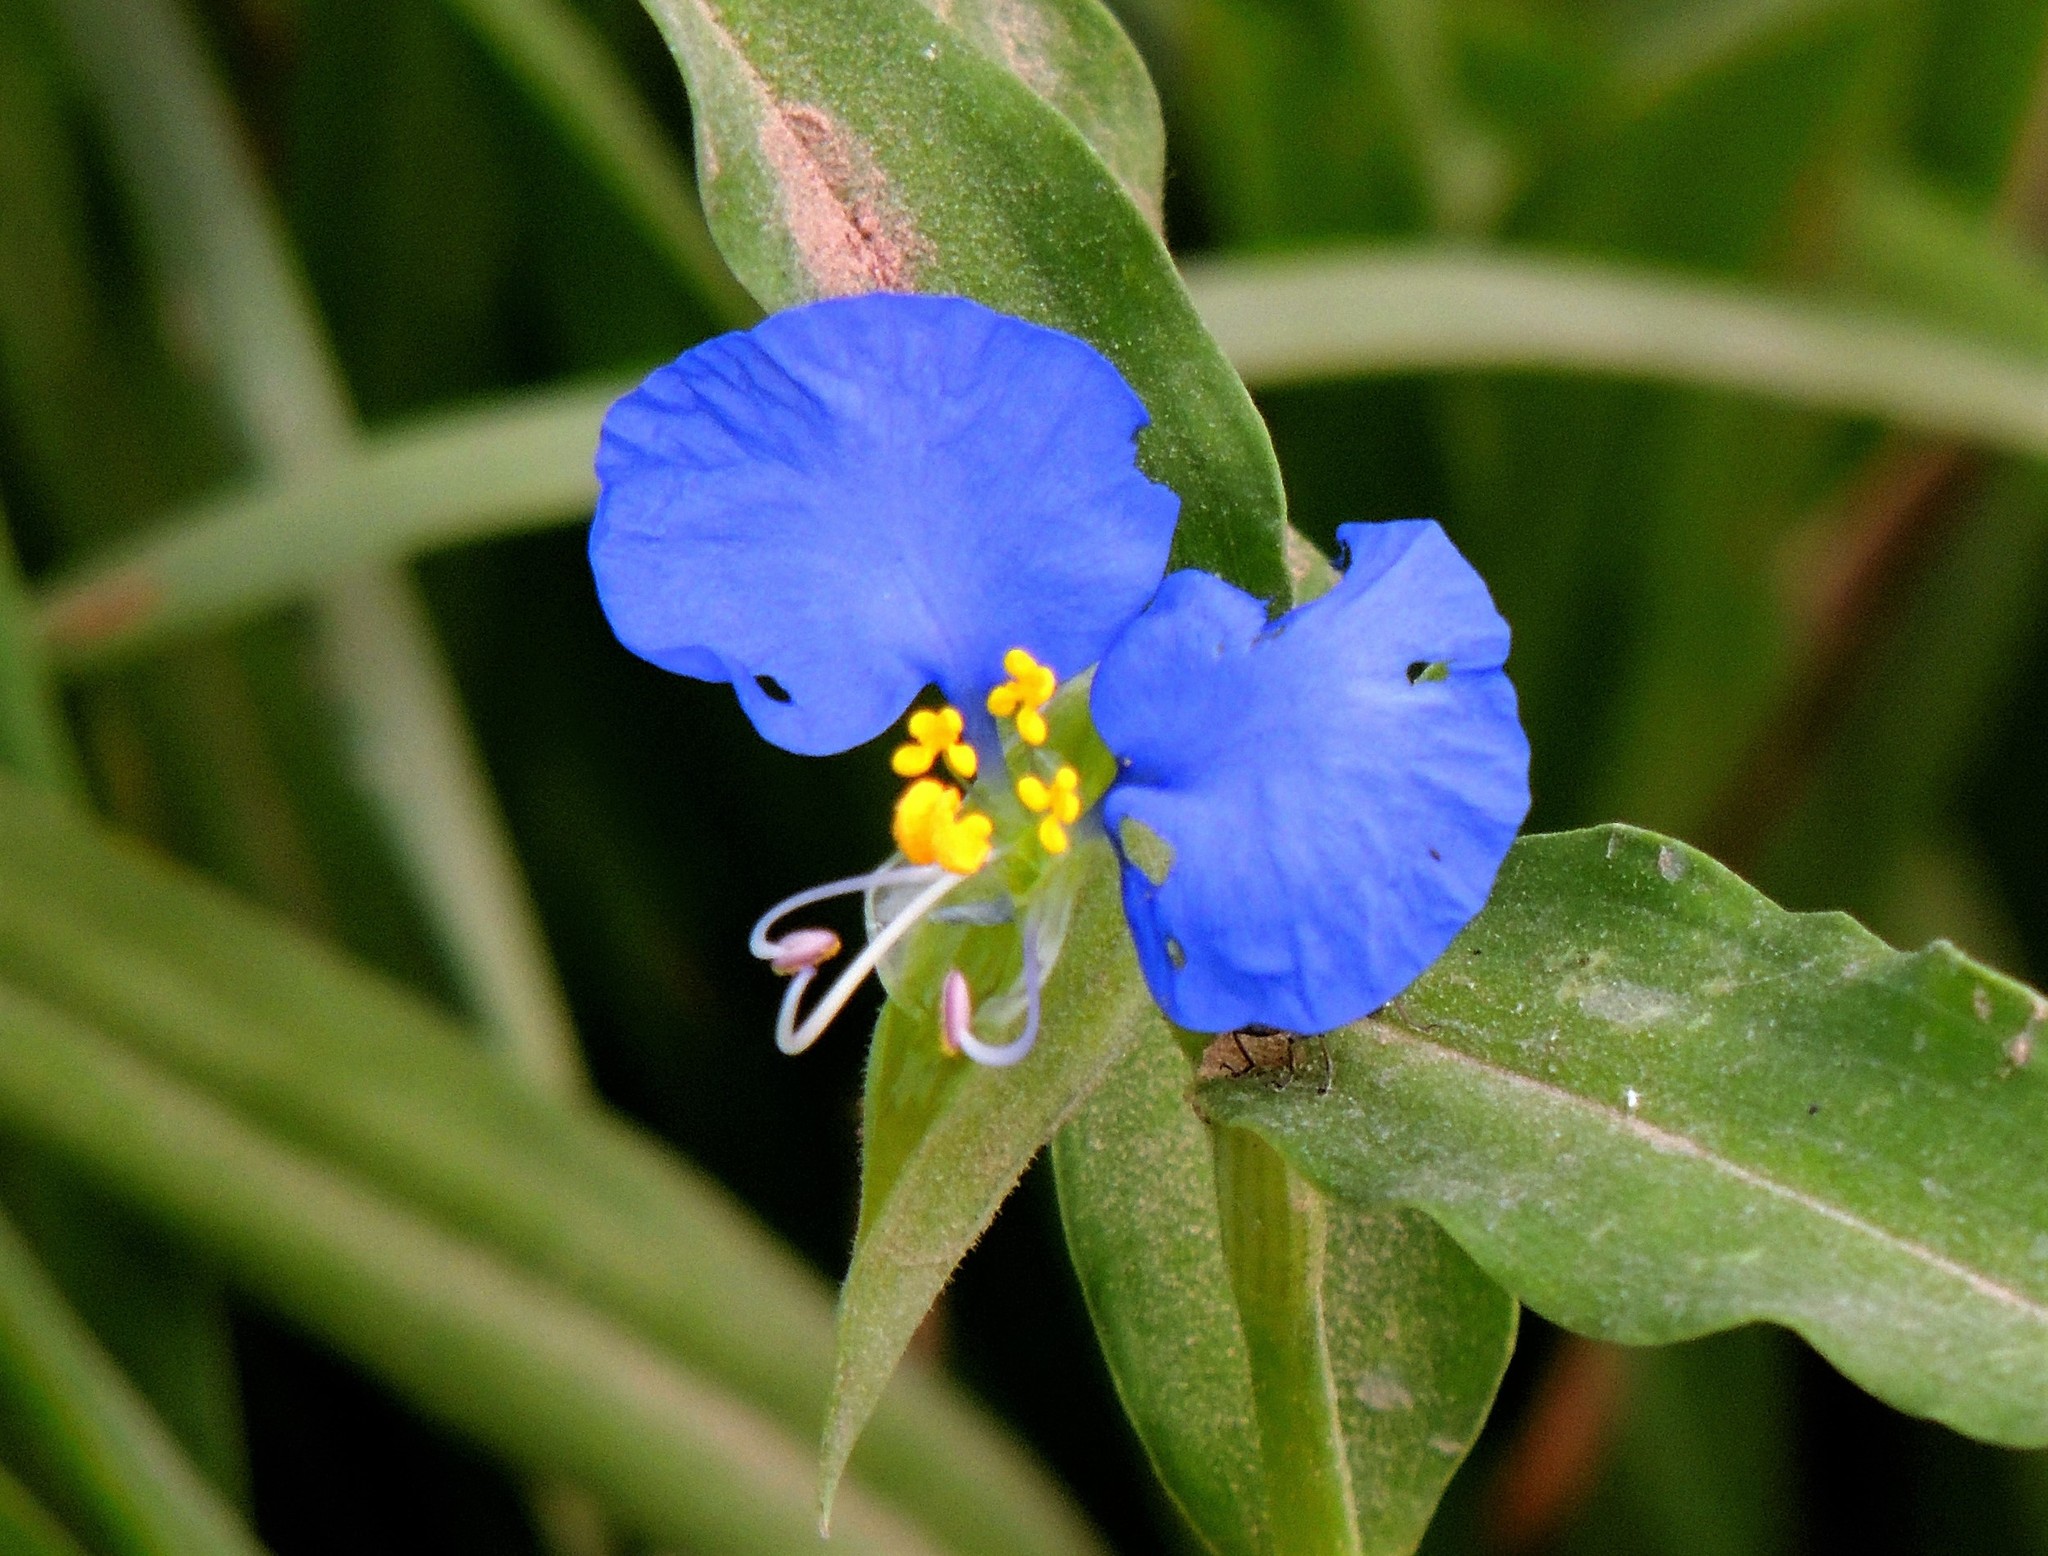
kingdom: Plantae
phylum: Tracheophyta
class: Liliopsida
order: Commelinales
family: Commelinaceae
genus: Commelina
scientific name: Commelina erecta
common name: Blousel blommetjie
